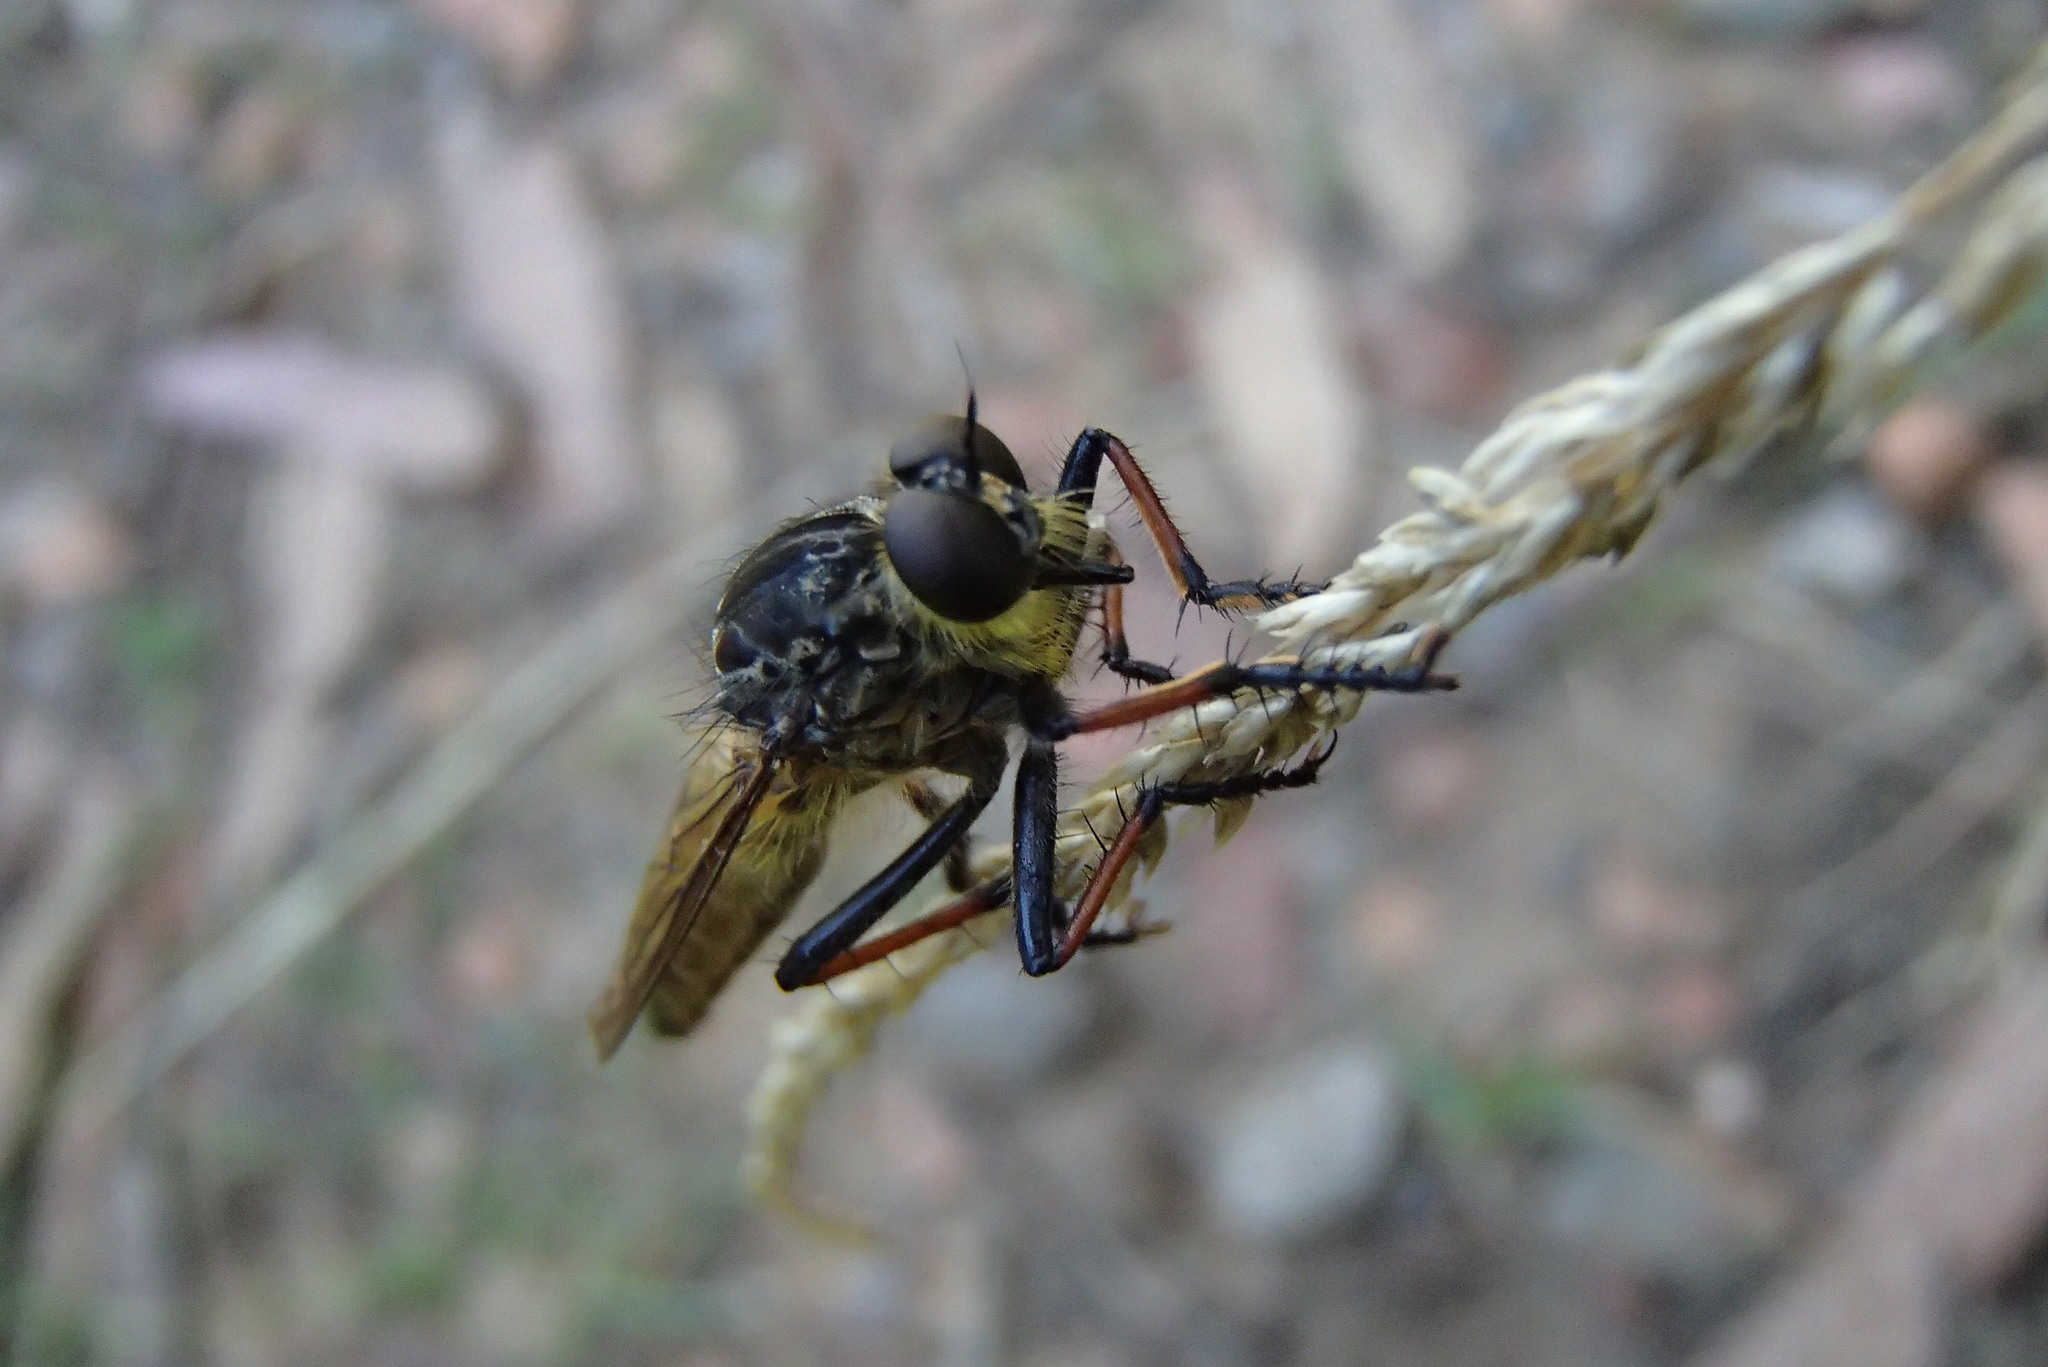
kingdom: Animalia
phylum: Arthropoda
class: Insecta
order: Diptera
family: Asilidae
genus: Zosteria
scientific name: Zosteria rosevillensis
